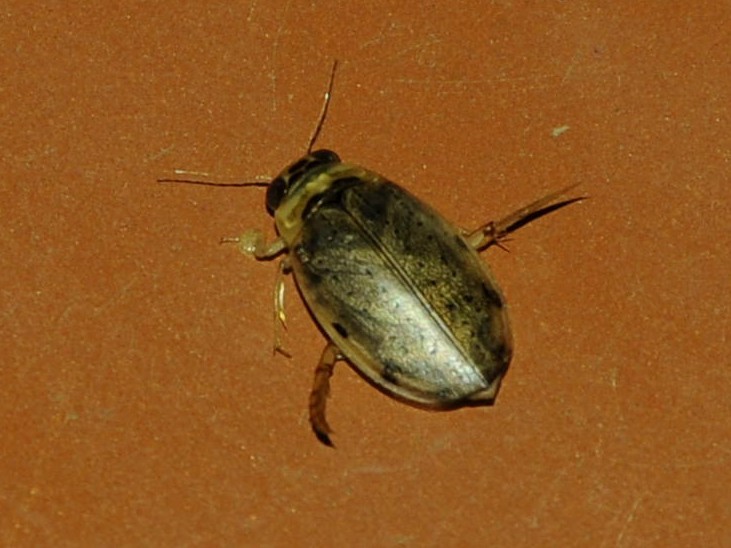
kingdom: Animalia
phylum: Arthropoda
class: Insecta
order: Coleoptera
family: Dytiscidae
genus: Eretes
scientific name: Eretes griseus
